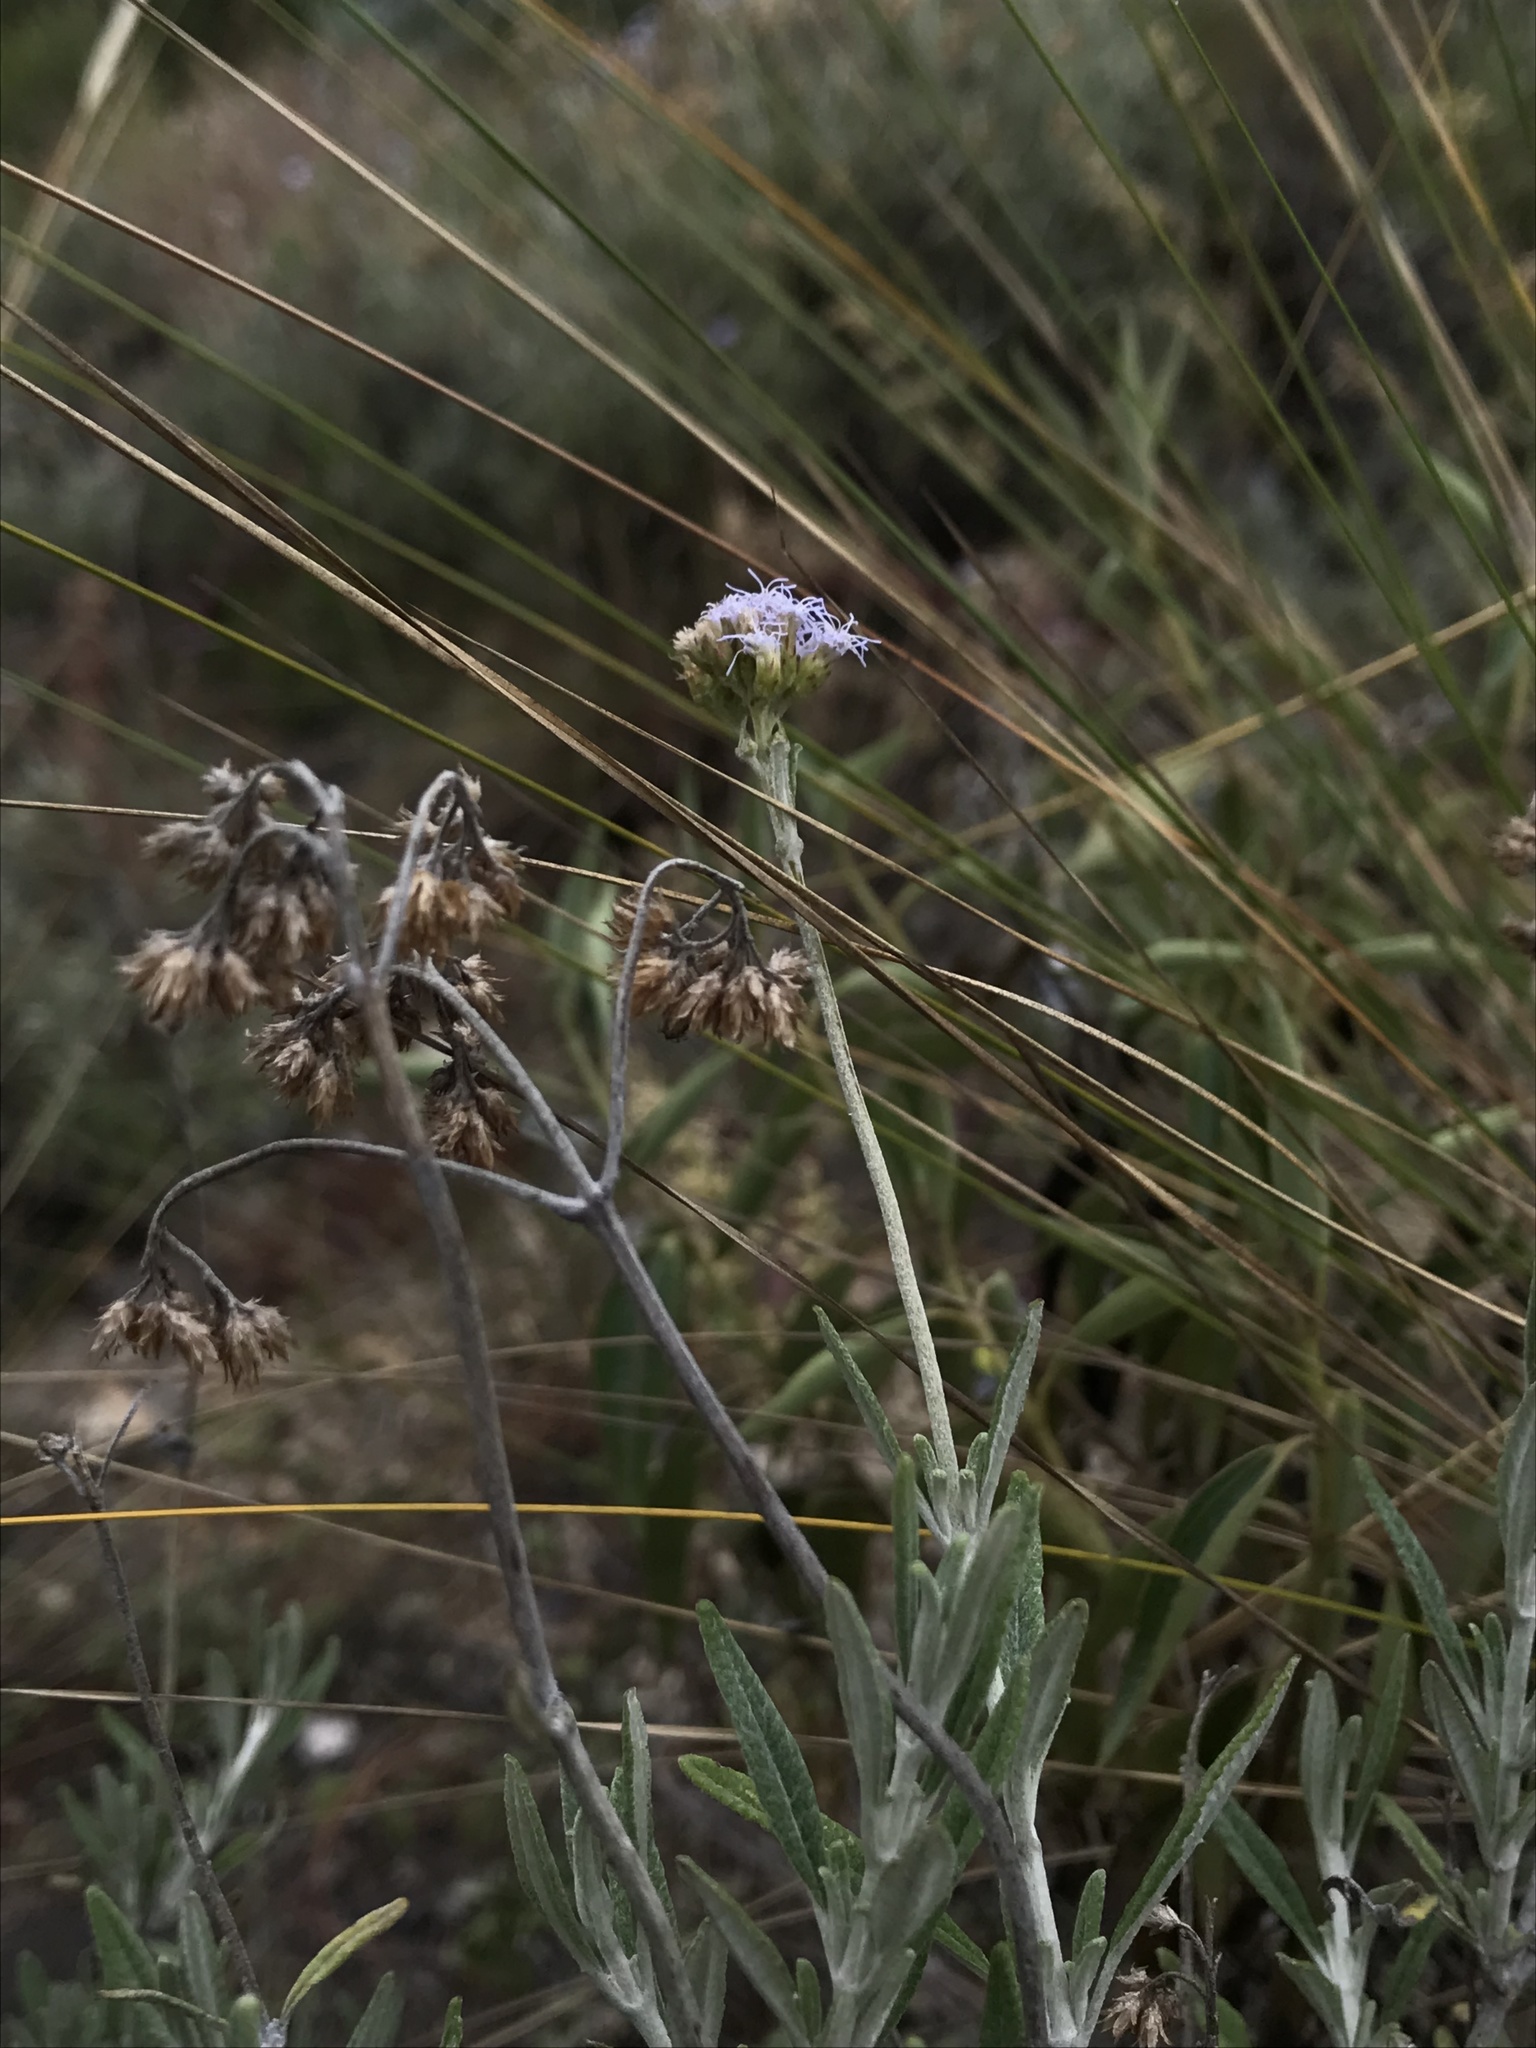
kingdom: Plantae
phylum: Tracheophyta
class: Magnoliopsida
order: Asterales
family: Asteraceae
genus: Lourteigia
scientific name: Lourteigia stoechadifolia
